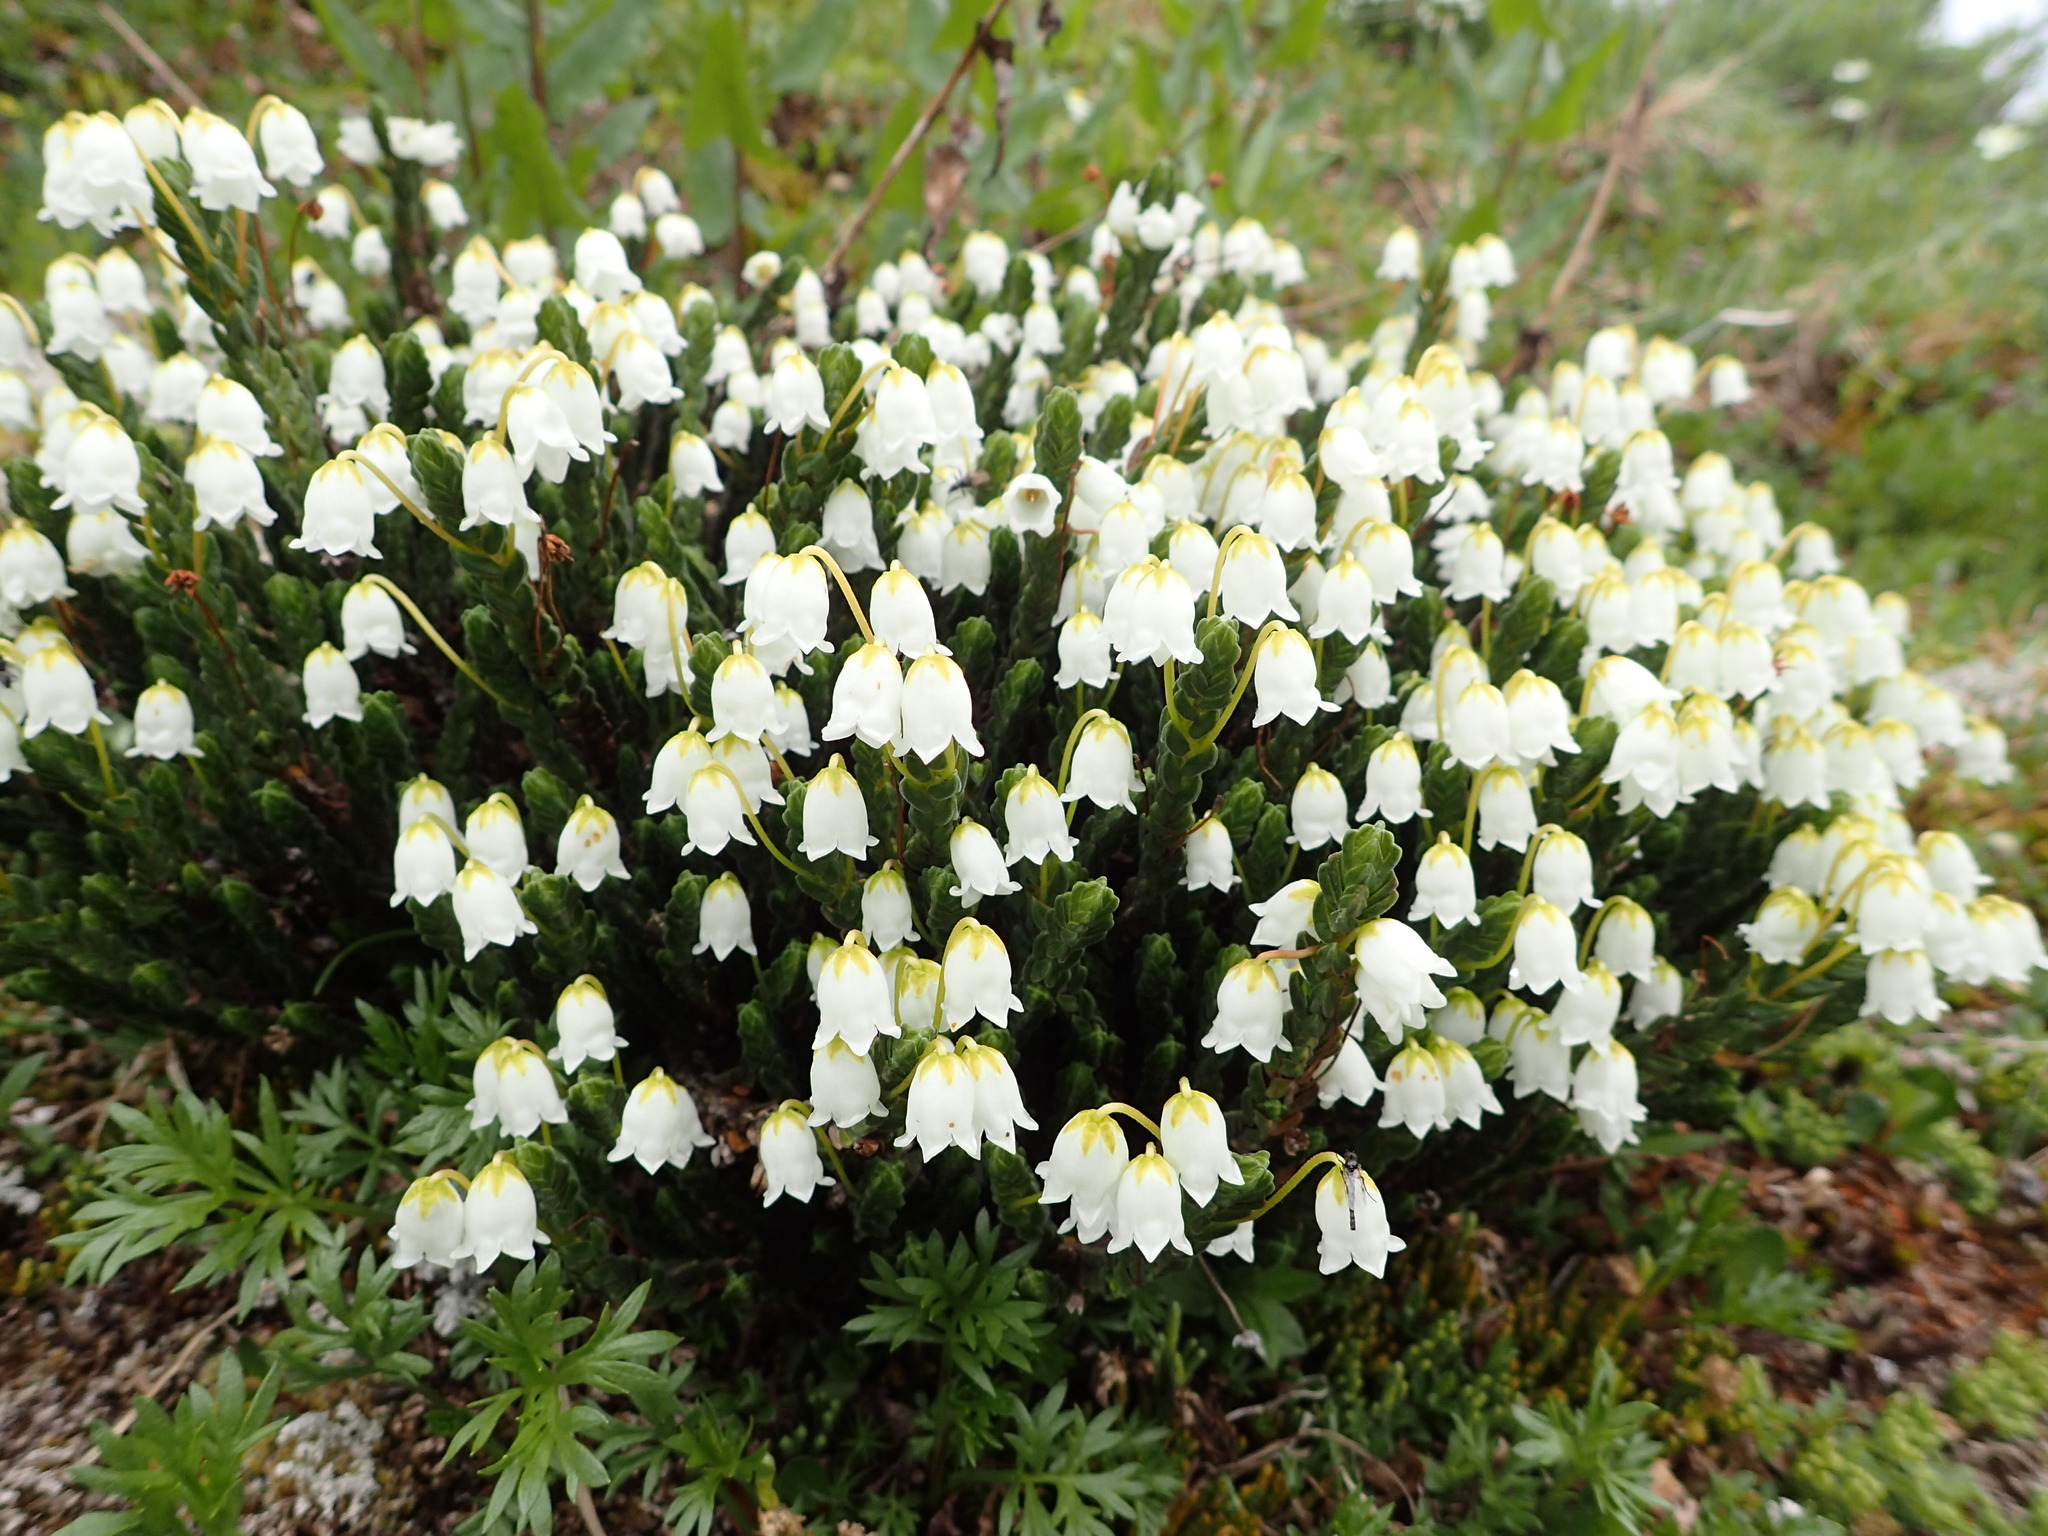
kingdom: Plantae
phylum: Tracheophyta
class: Magnoliopsida
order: Ericales
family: Ericaceae
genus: Cassiope
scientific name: Cassiope tetragona
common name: Arctic bell heather
